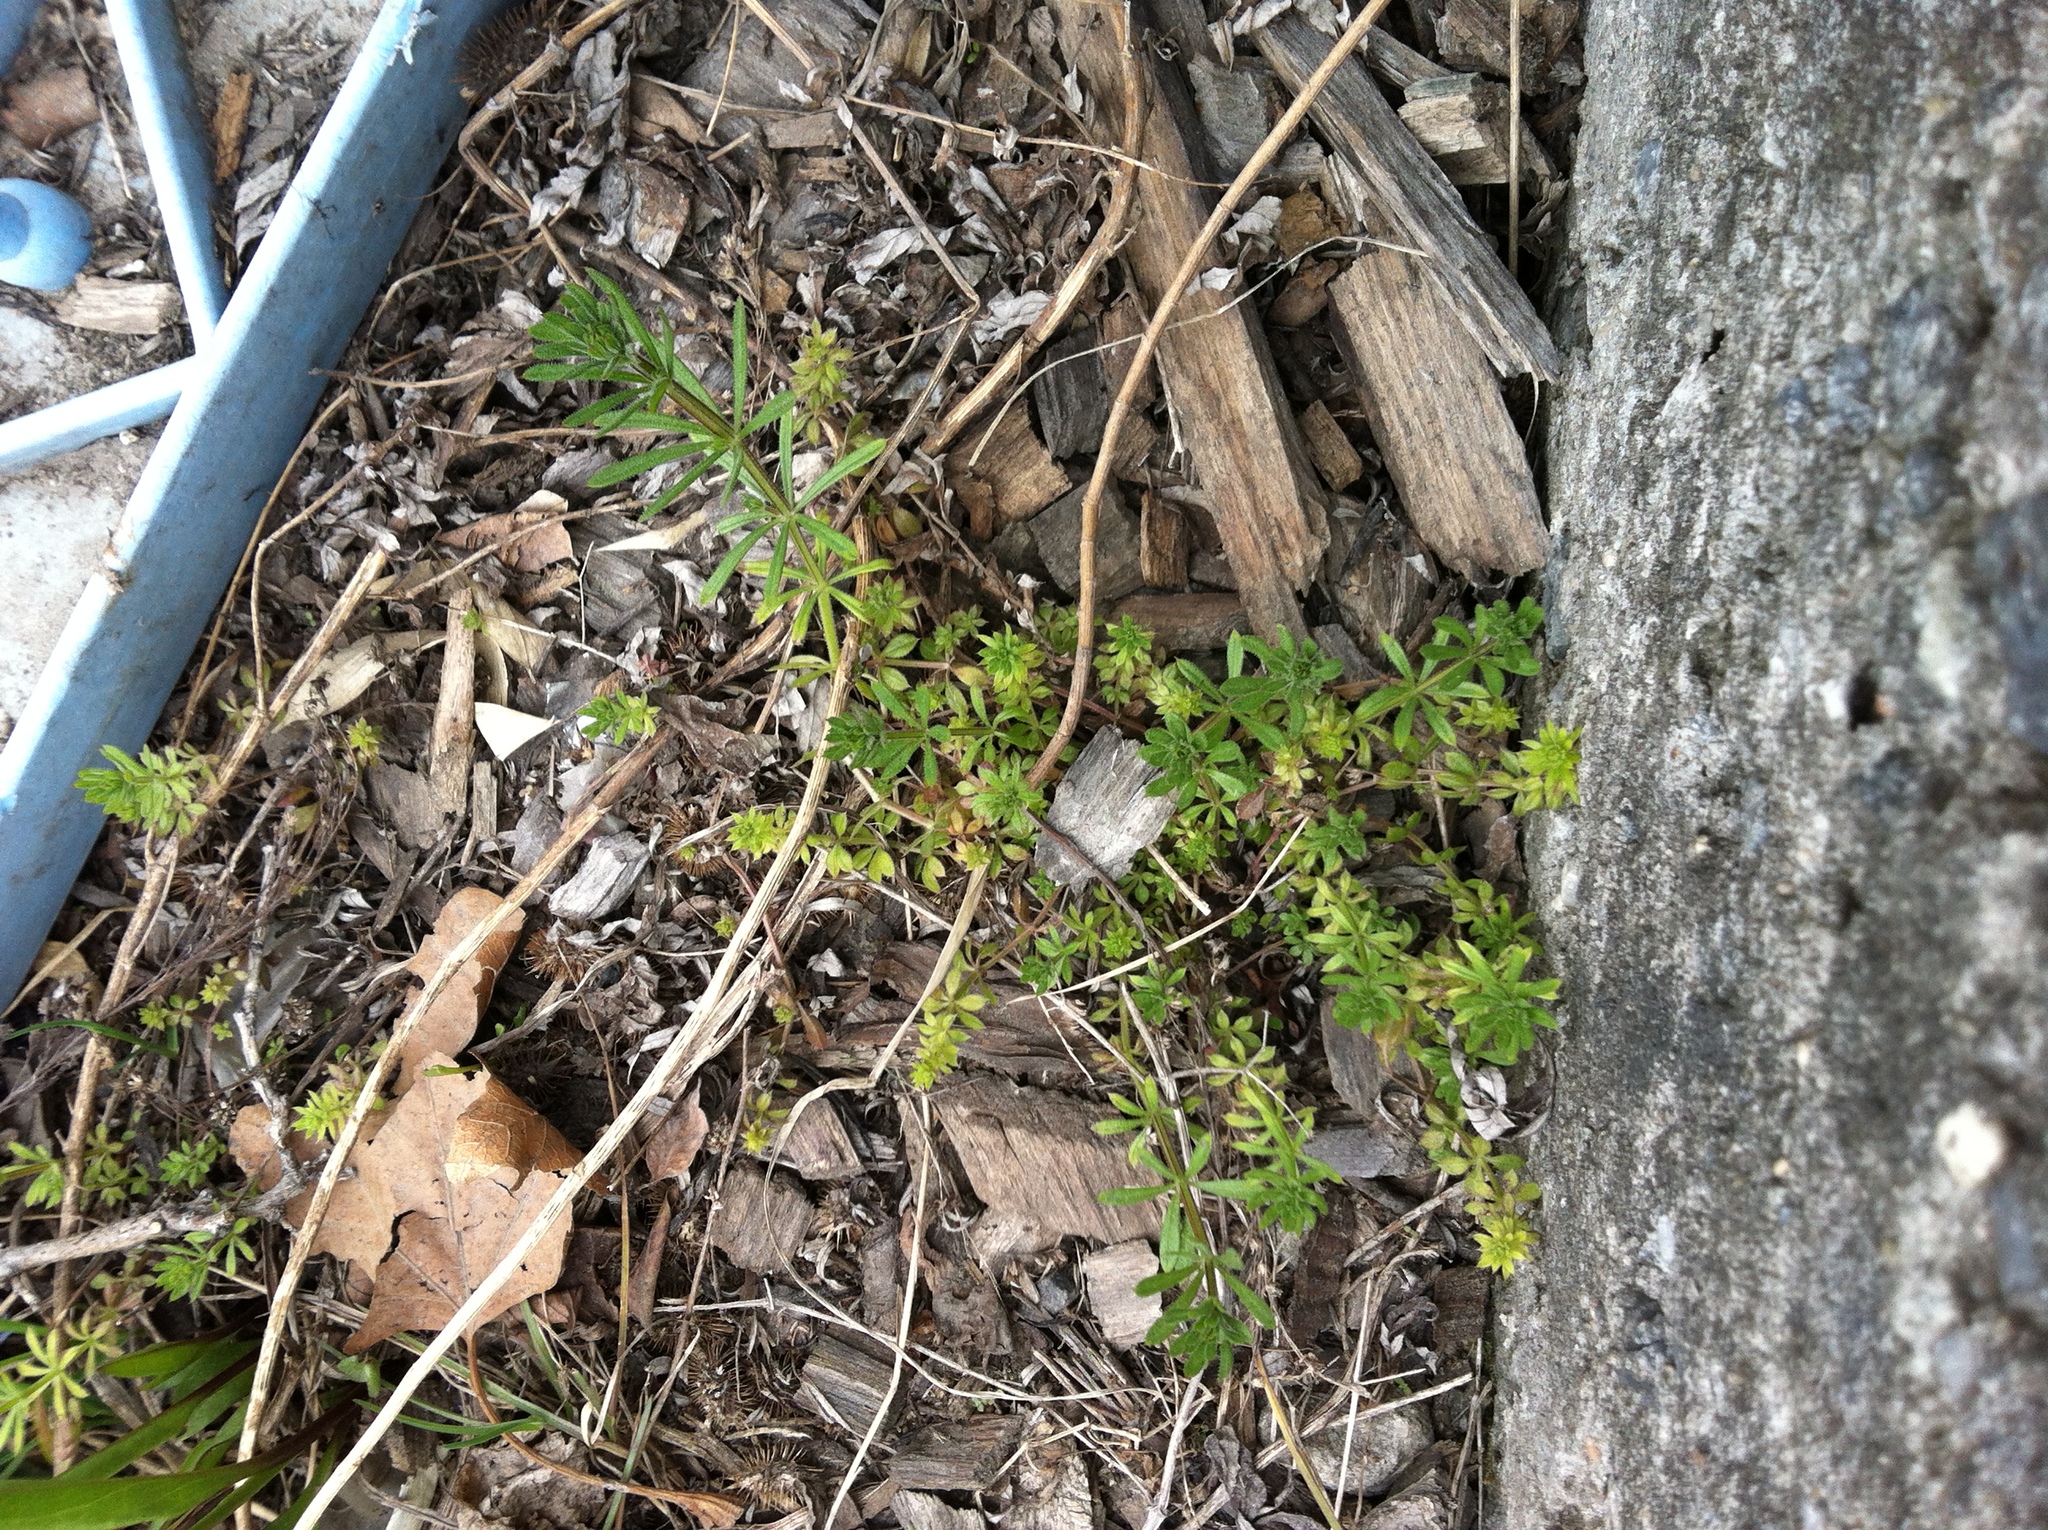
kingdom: Plantae
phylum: Tracheophyta
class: Magnoliopsida
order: Gentianales
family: Rubiaceae
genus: Galium
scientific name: Galium aparine
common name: Cleavers
